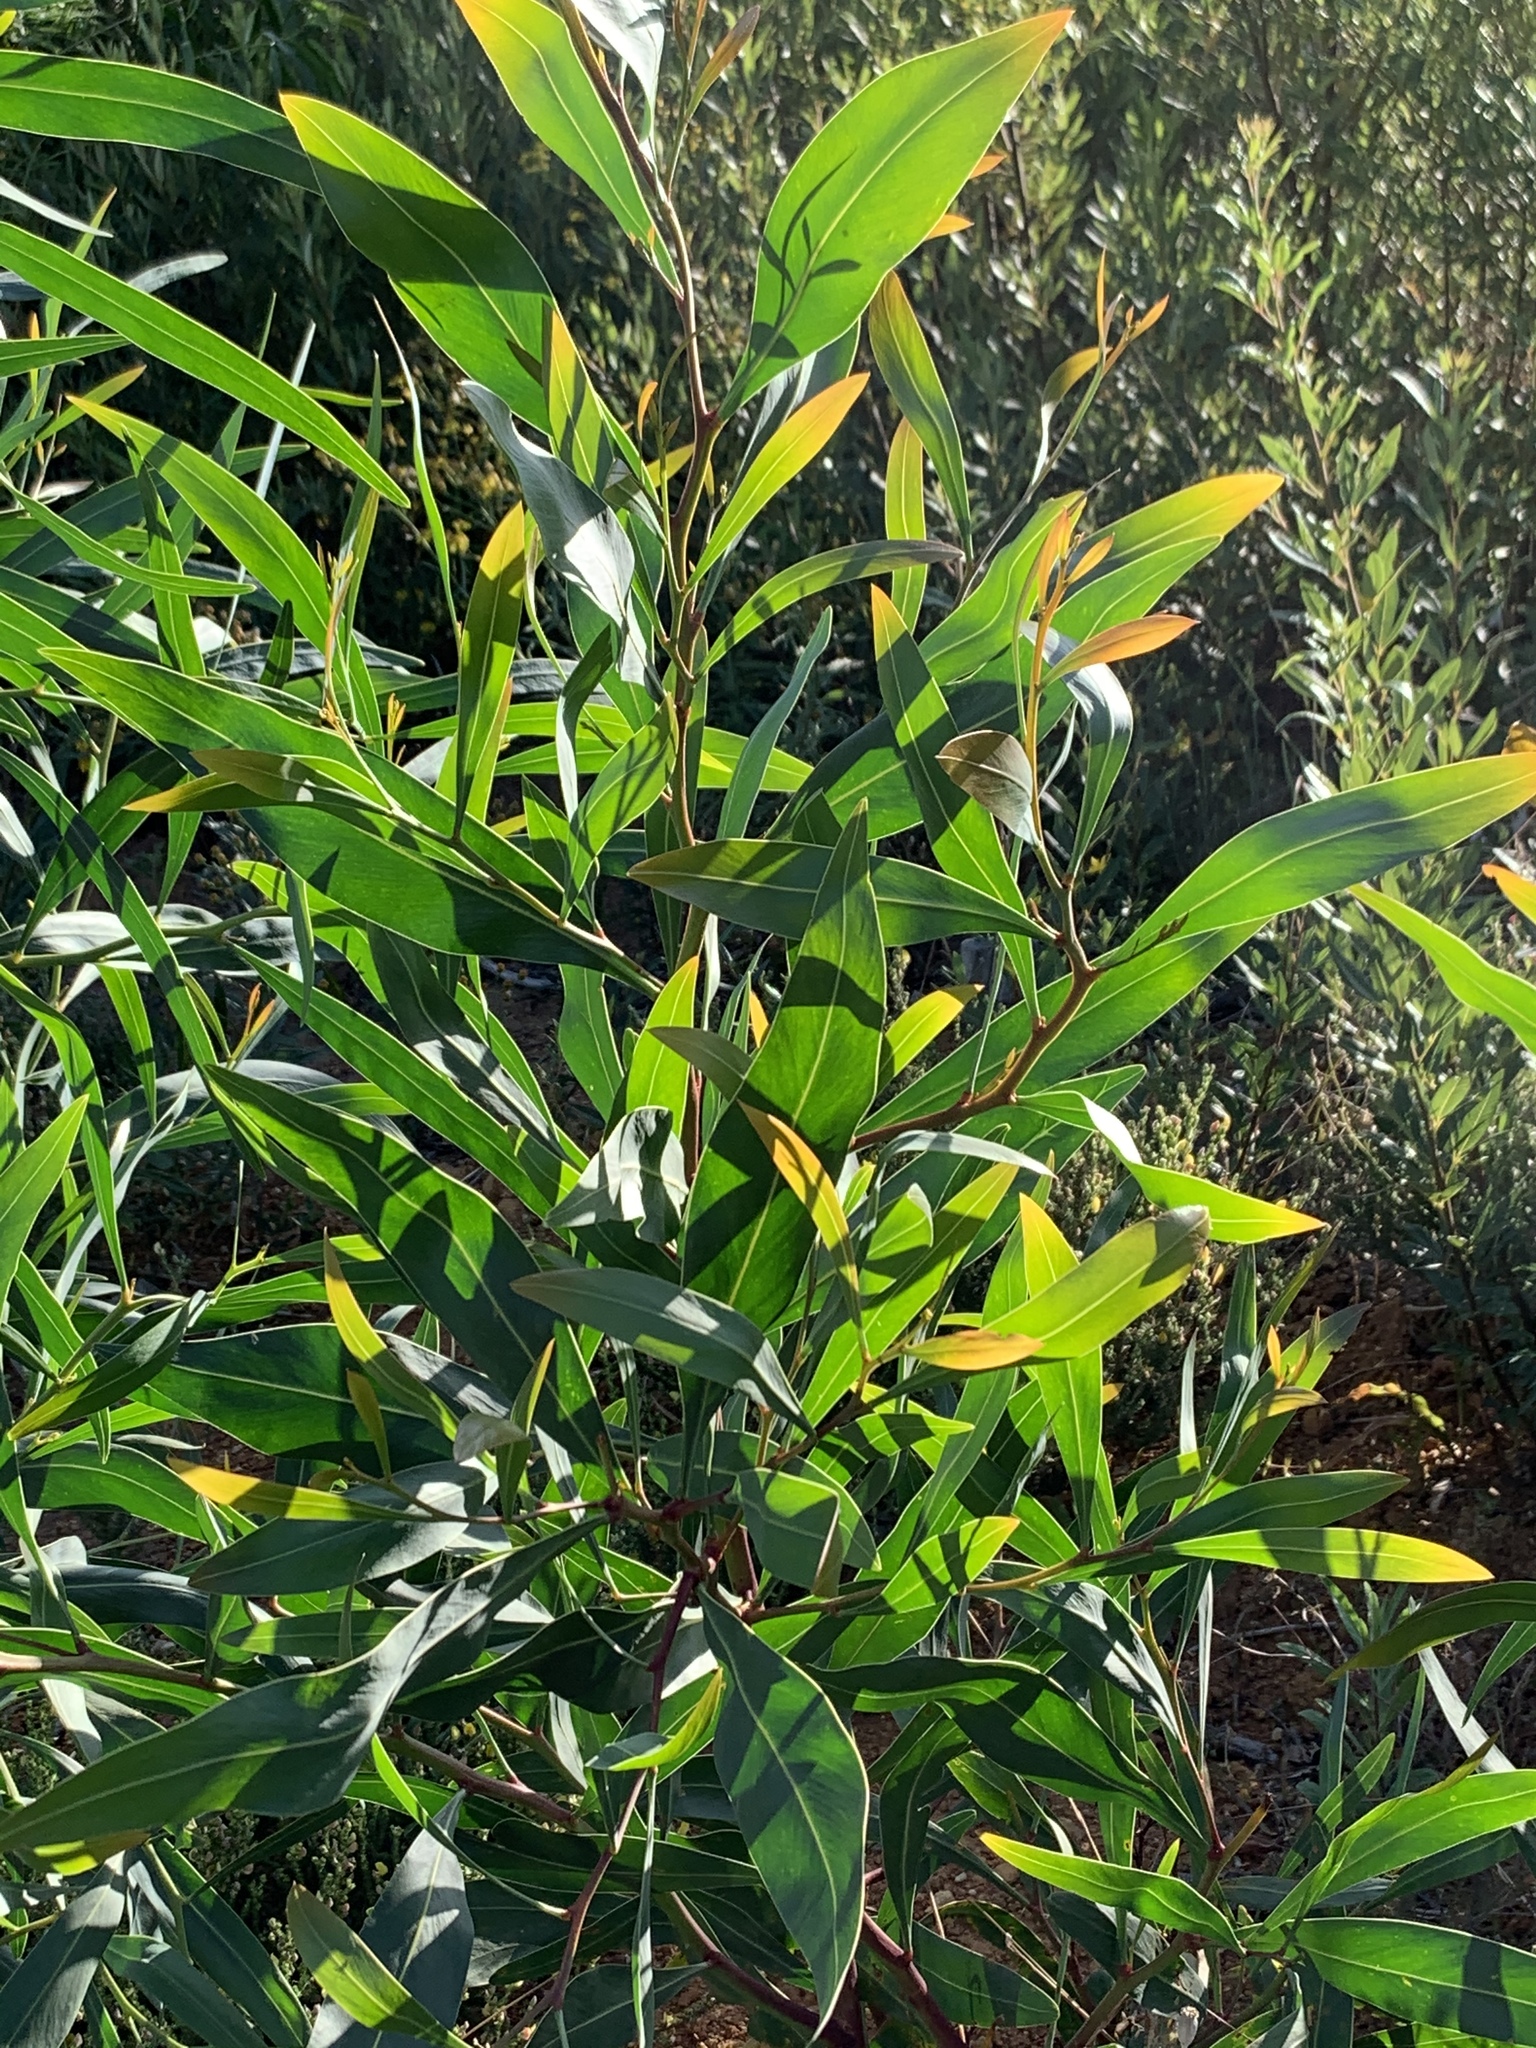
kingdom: Plantae
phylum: Tracheophyta
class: Magnoliopsida
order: Fabales
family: Fabaceae
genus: Acacia
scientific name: Acacia saligna
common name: Orange wattle
